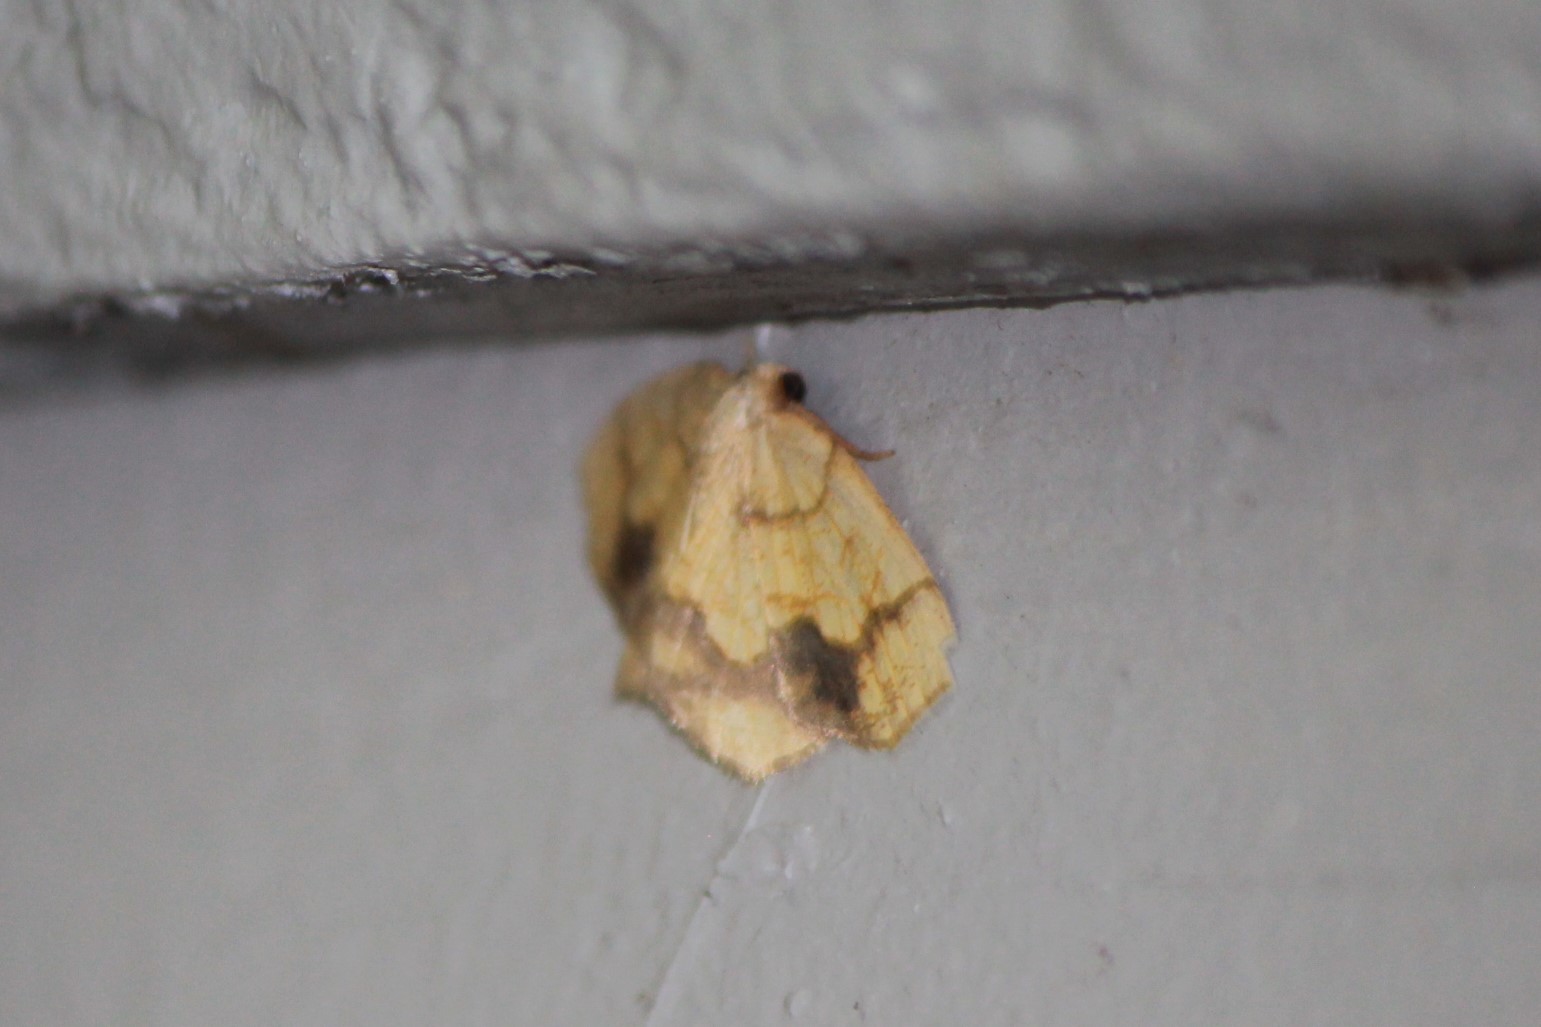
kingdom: Animalia
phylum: Arthropoda
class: Insecta
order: Lepidoptera
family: Geometridae
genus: Nematocampa
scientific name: Nematocampa resistaria
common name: Horned spanworm moth
